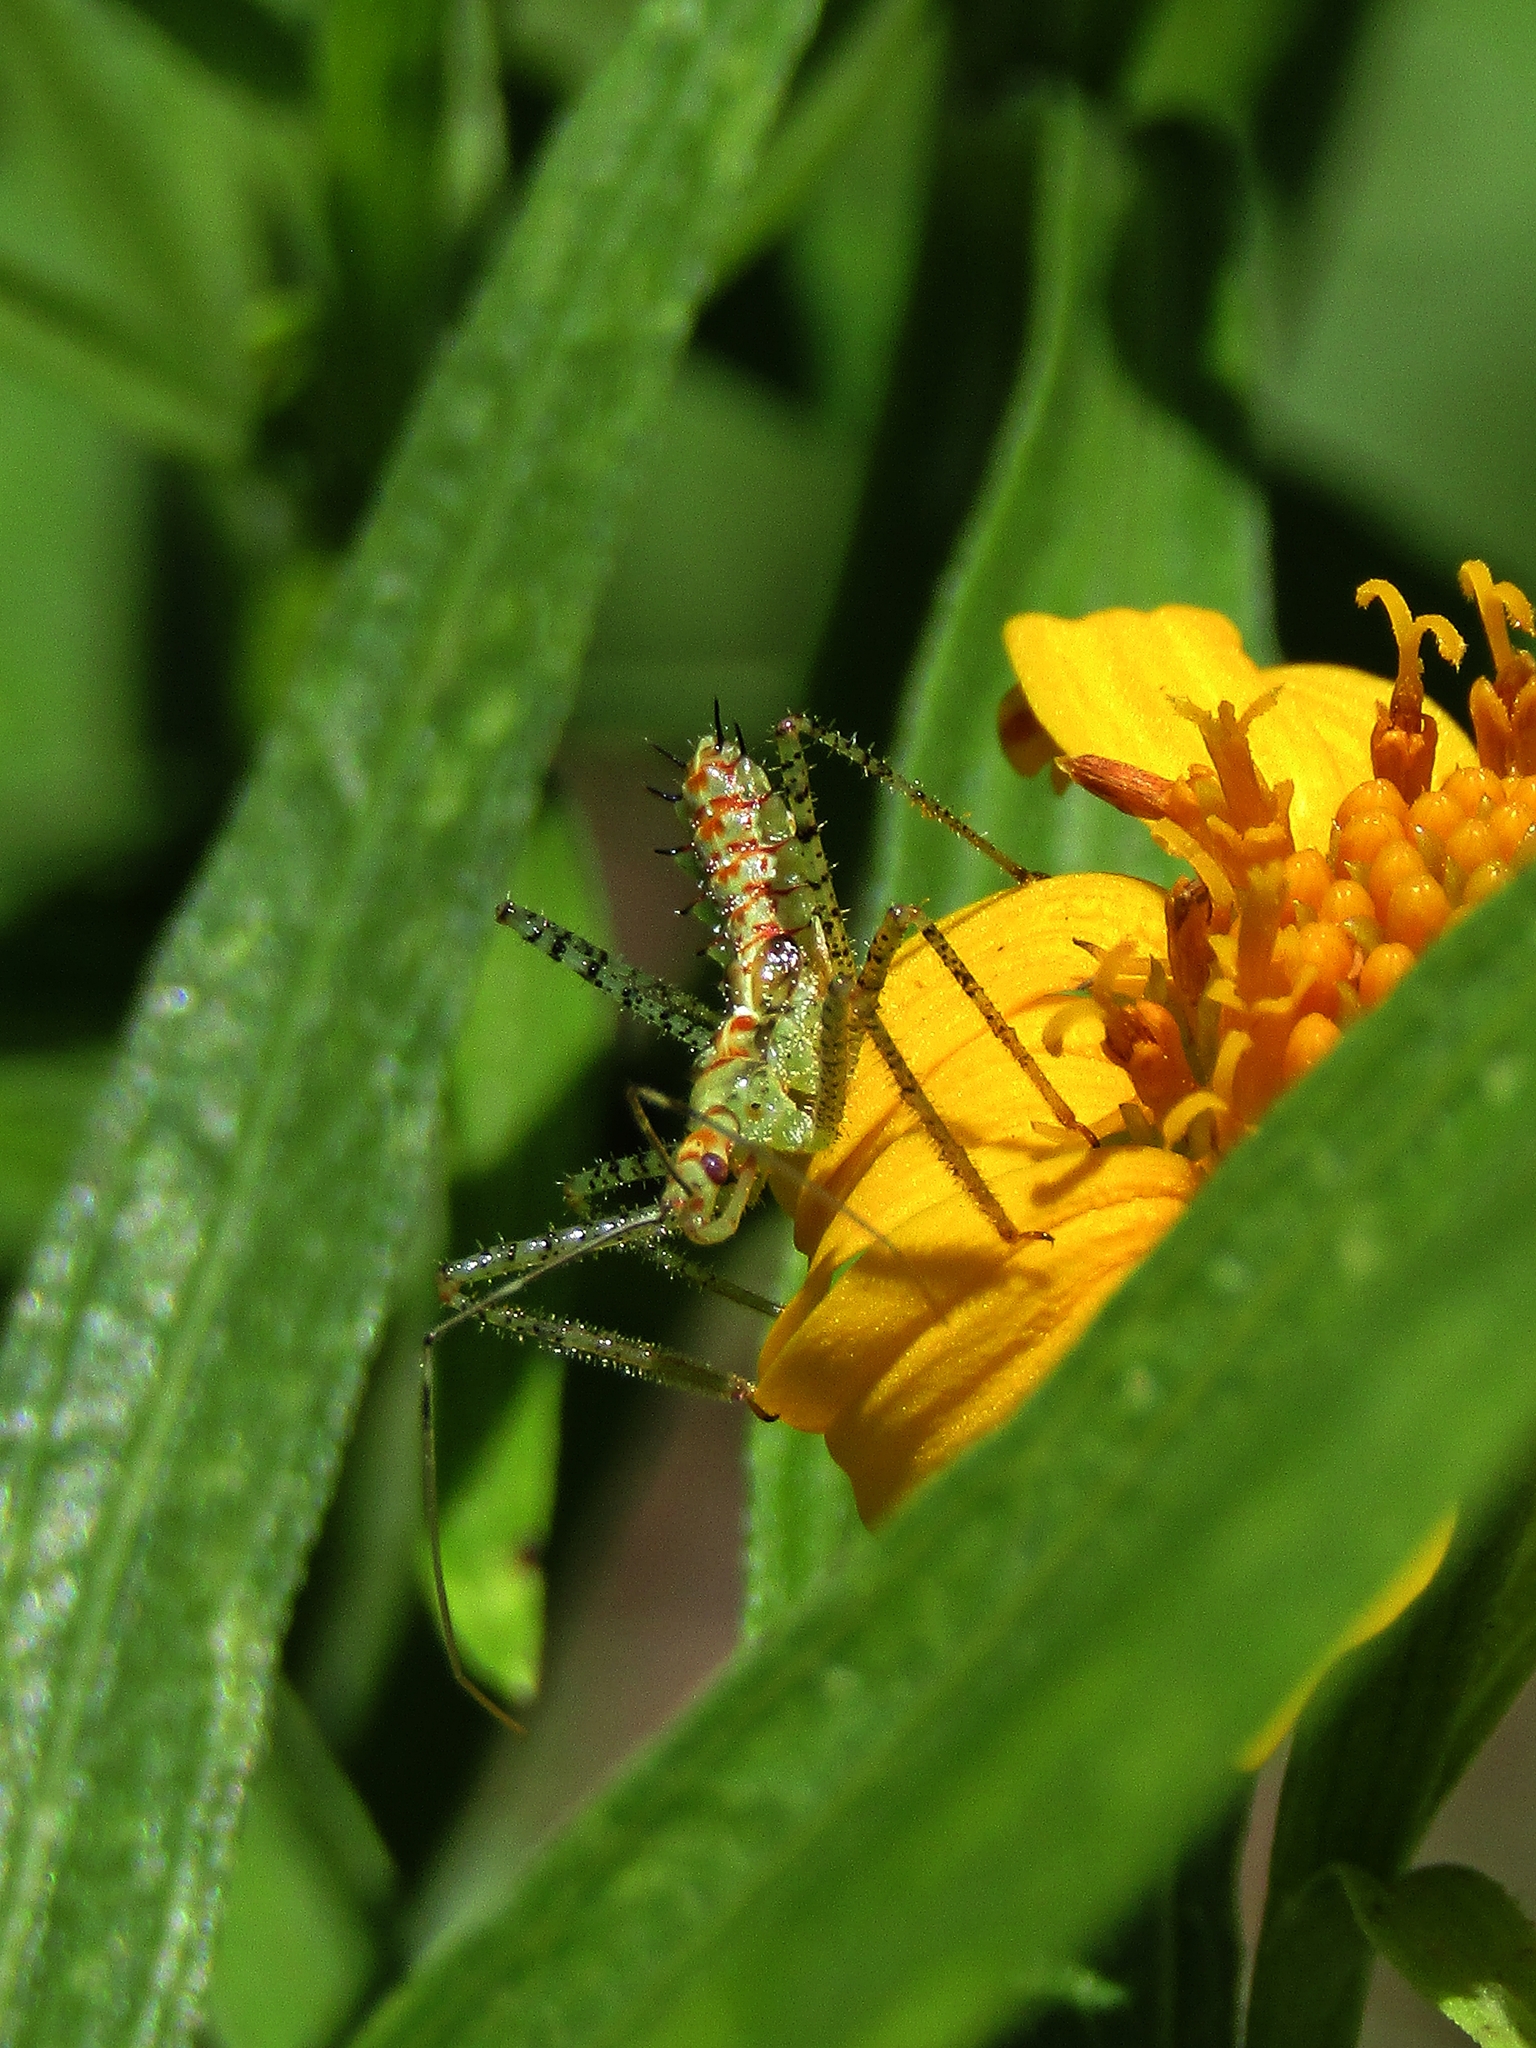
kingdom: Animalia
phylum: Arthropoda
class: Insecta
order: Hemiptera
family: Reduviidae
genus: Zelus
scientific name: Zelus renardii
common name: Assassin bug
